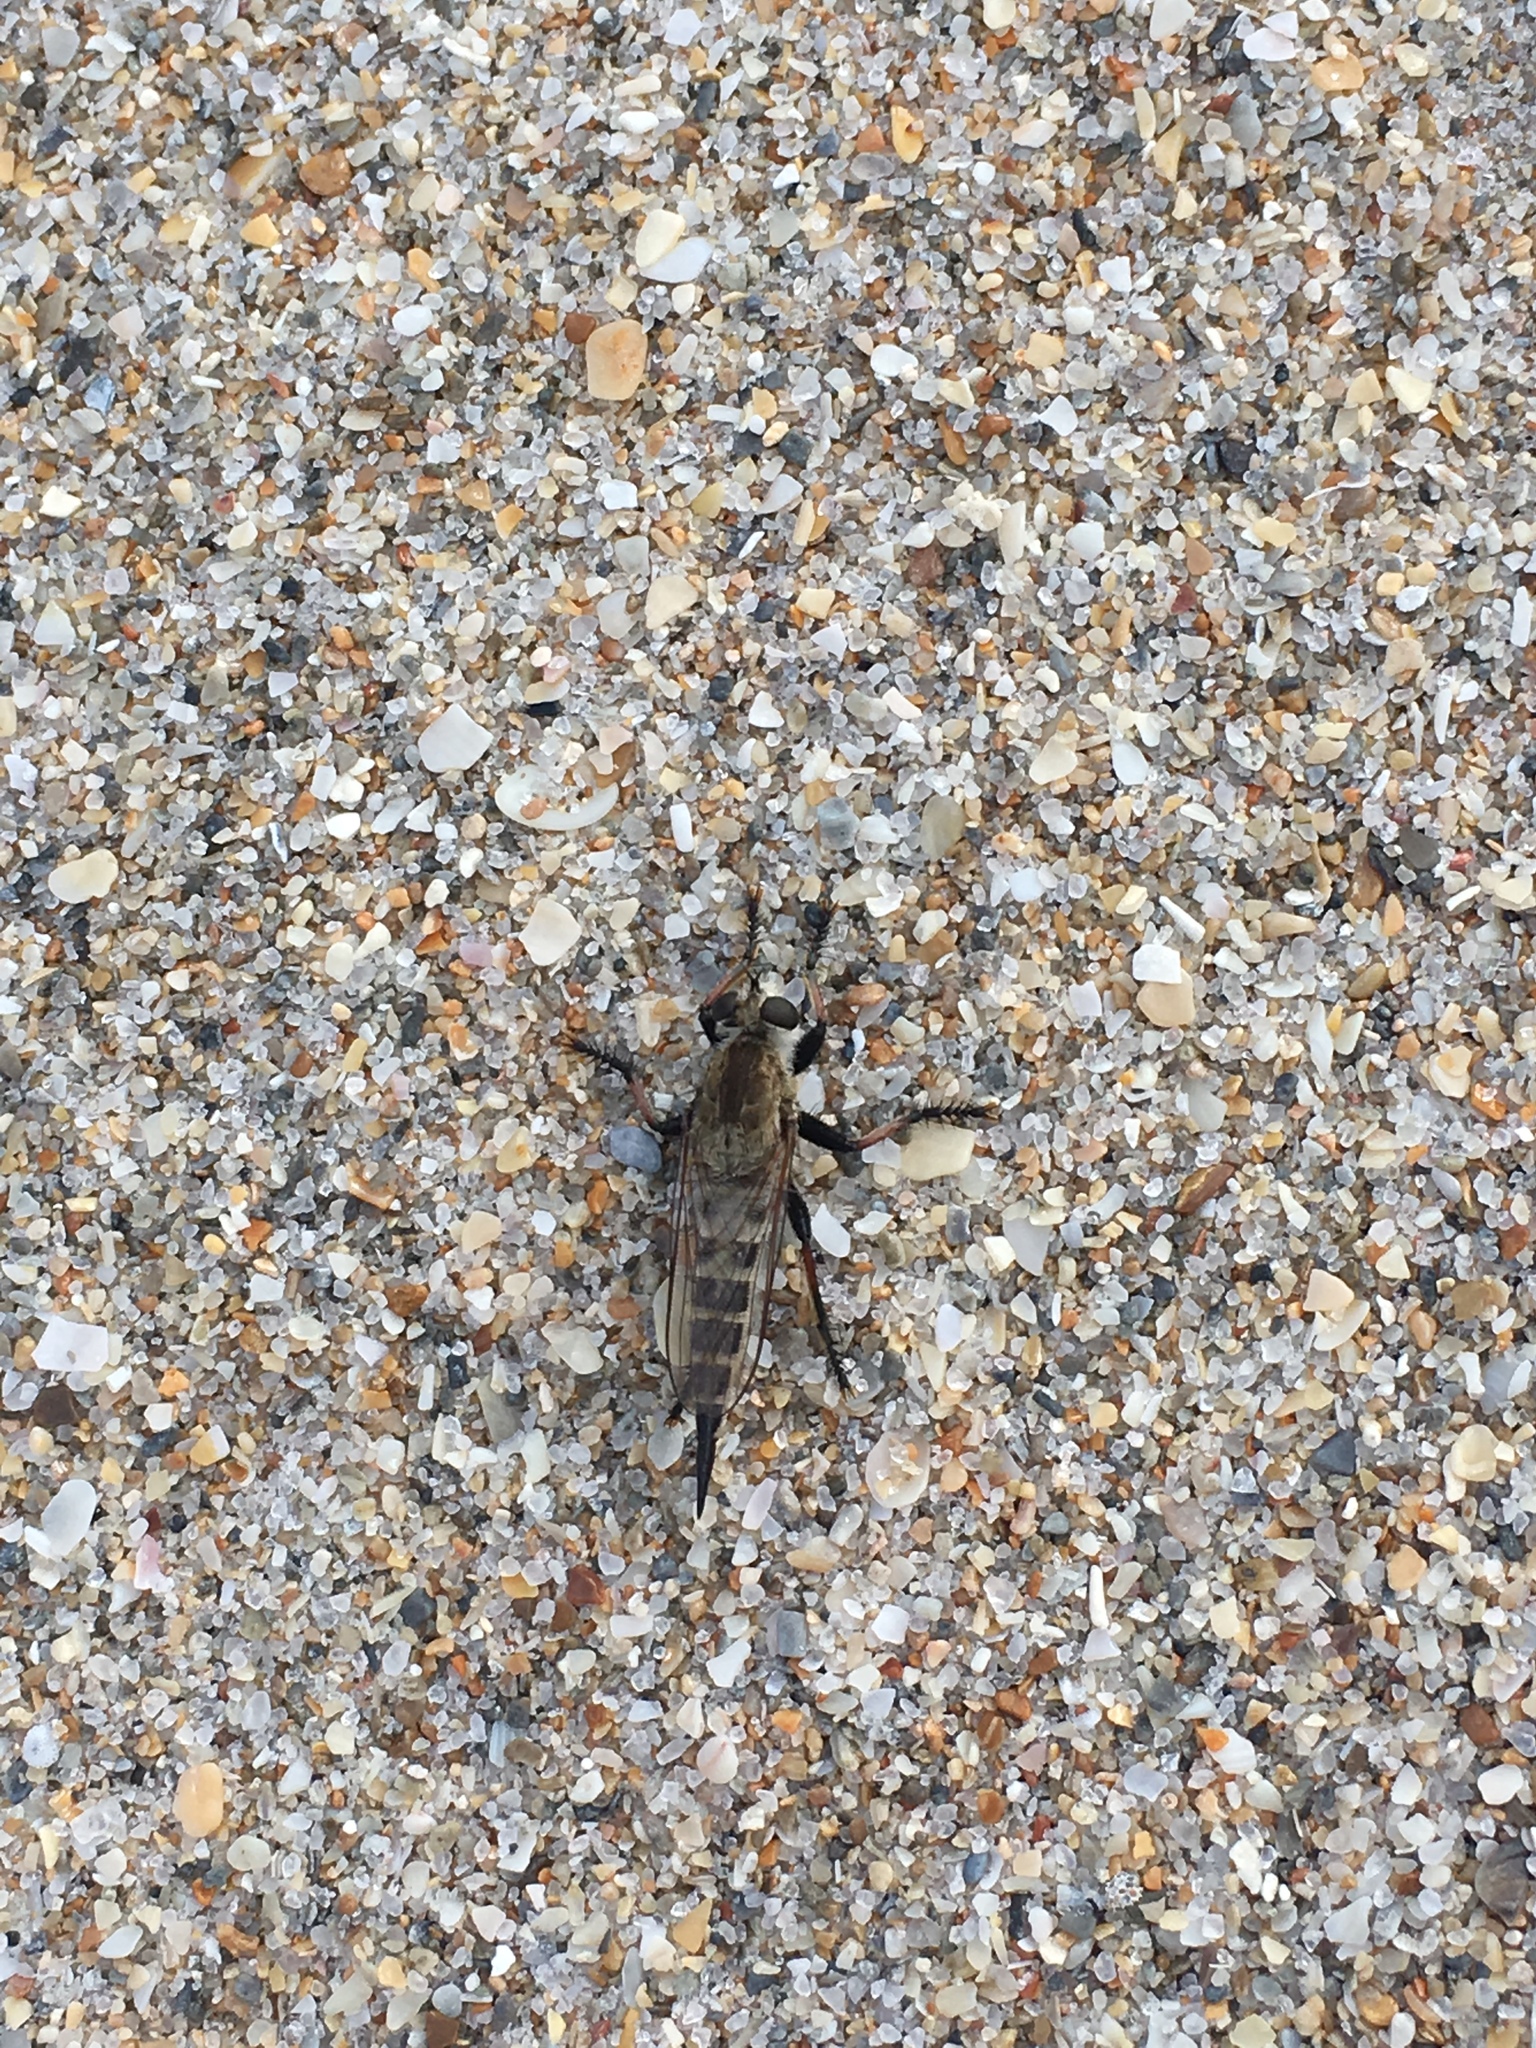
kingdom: Animalia
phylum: Arthropoda
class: Insecta
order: Diptera
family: Asilidae
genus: Efferia
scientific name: Efferia albibarbis
